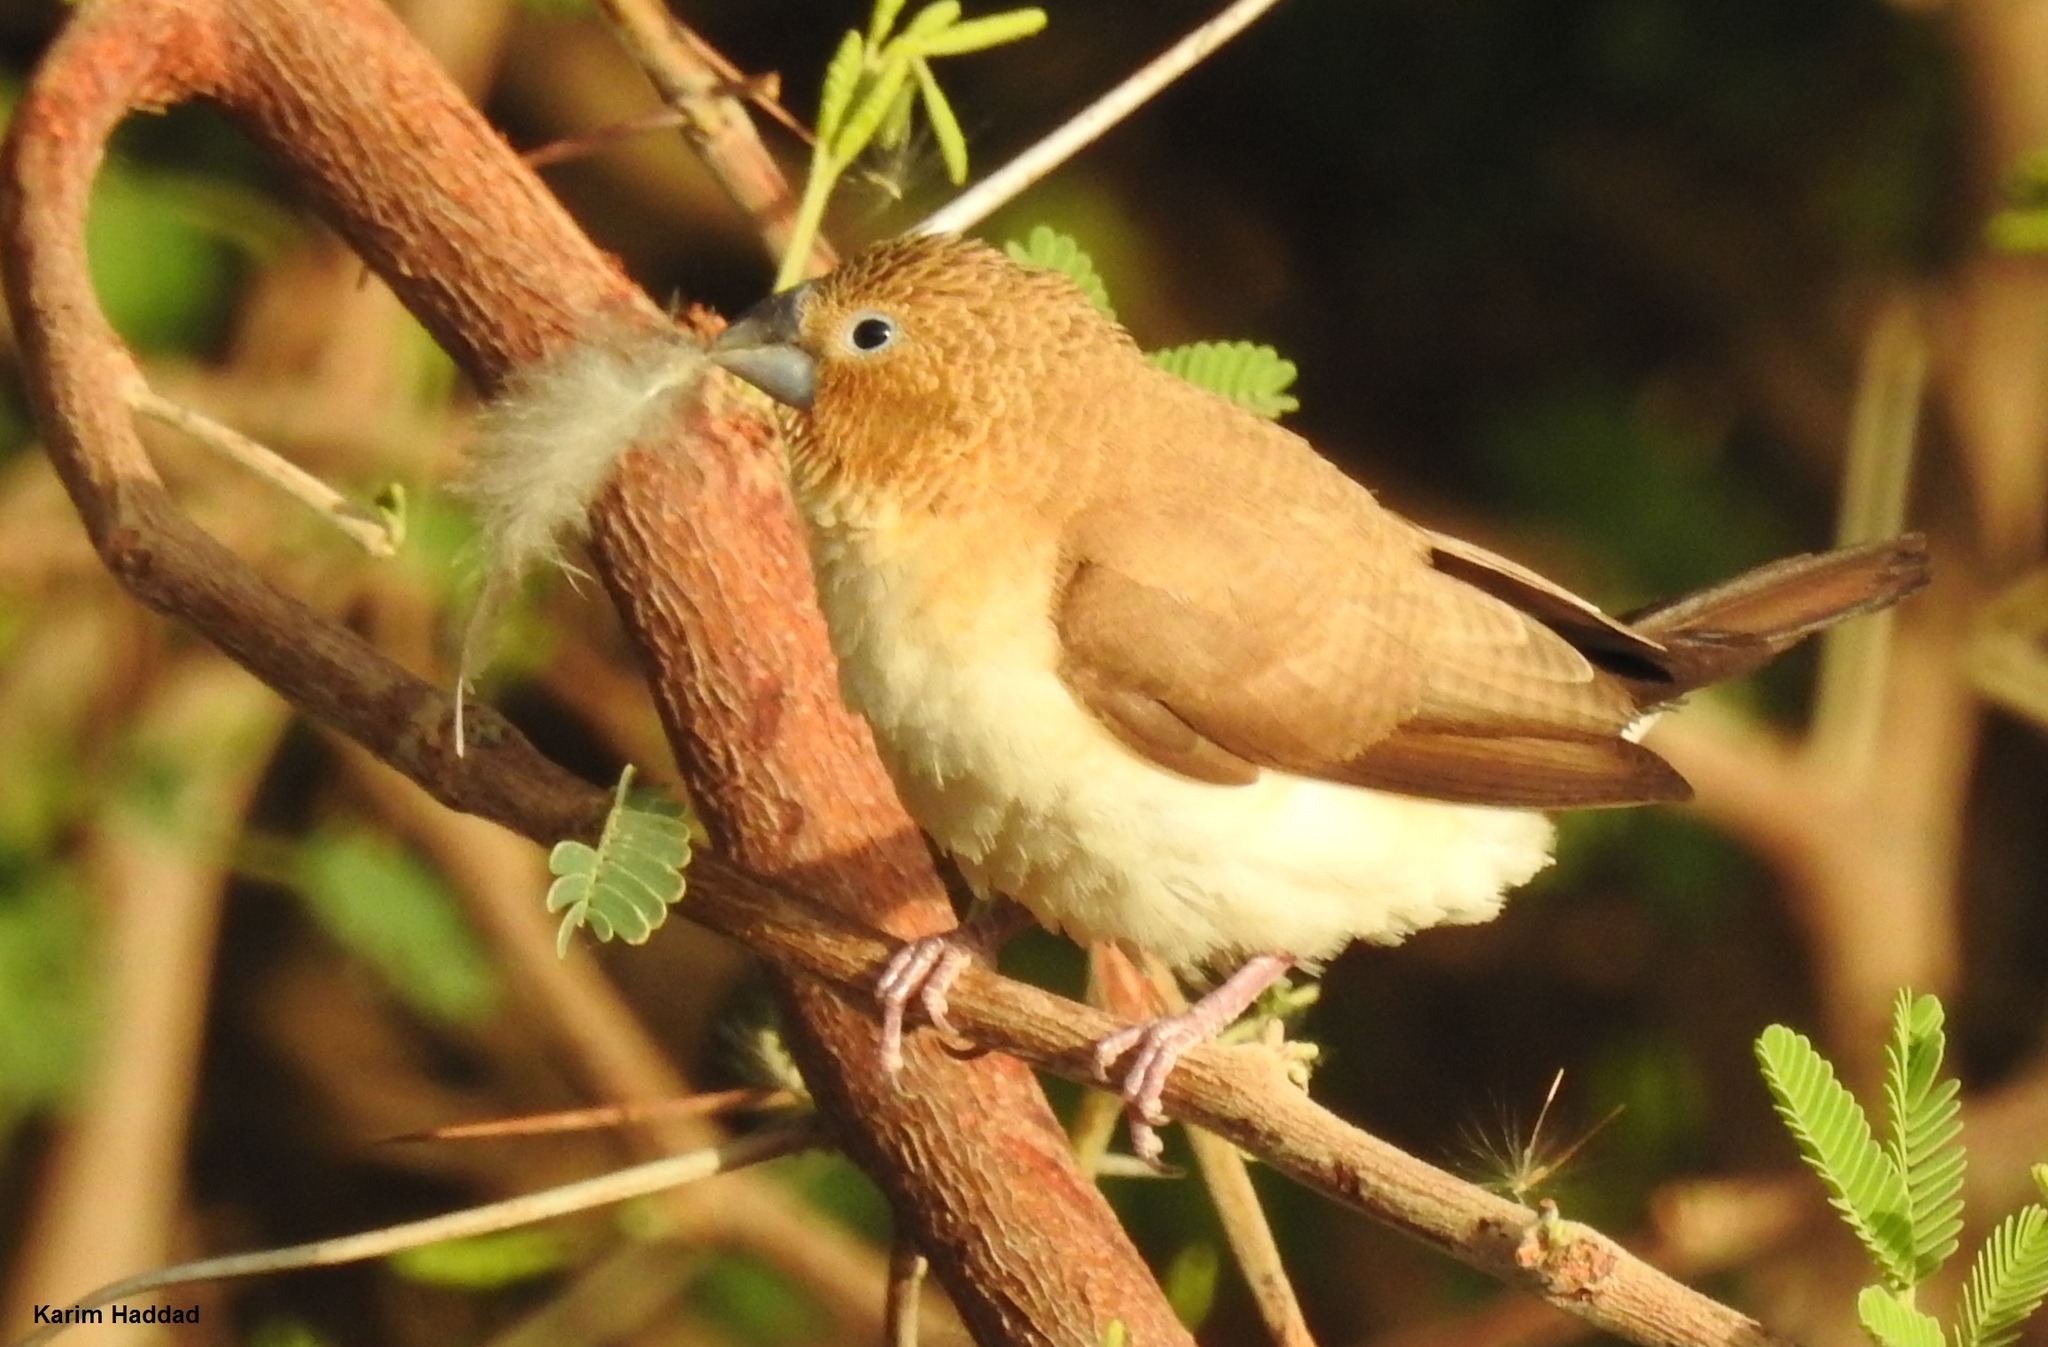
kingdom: Animalia
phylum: Chordata
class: Aves
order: Passeriformes
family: Estrildidae
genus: Euodice
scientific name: Euodice cantans
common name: African silverbill
